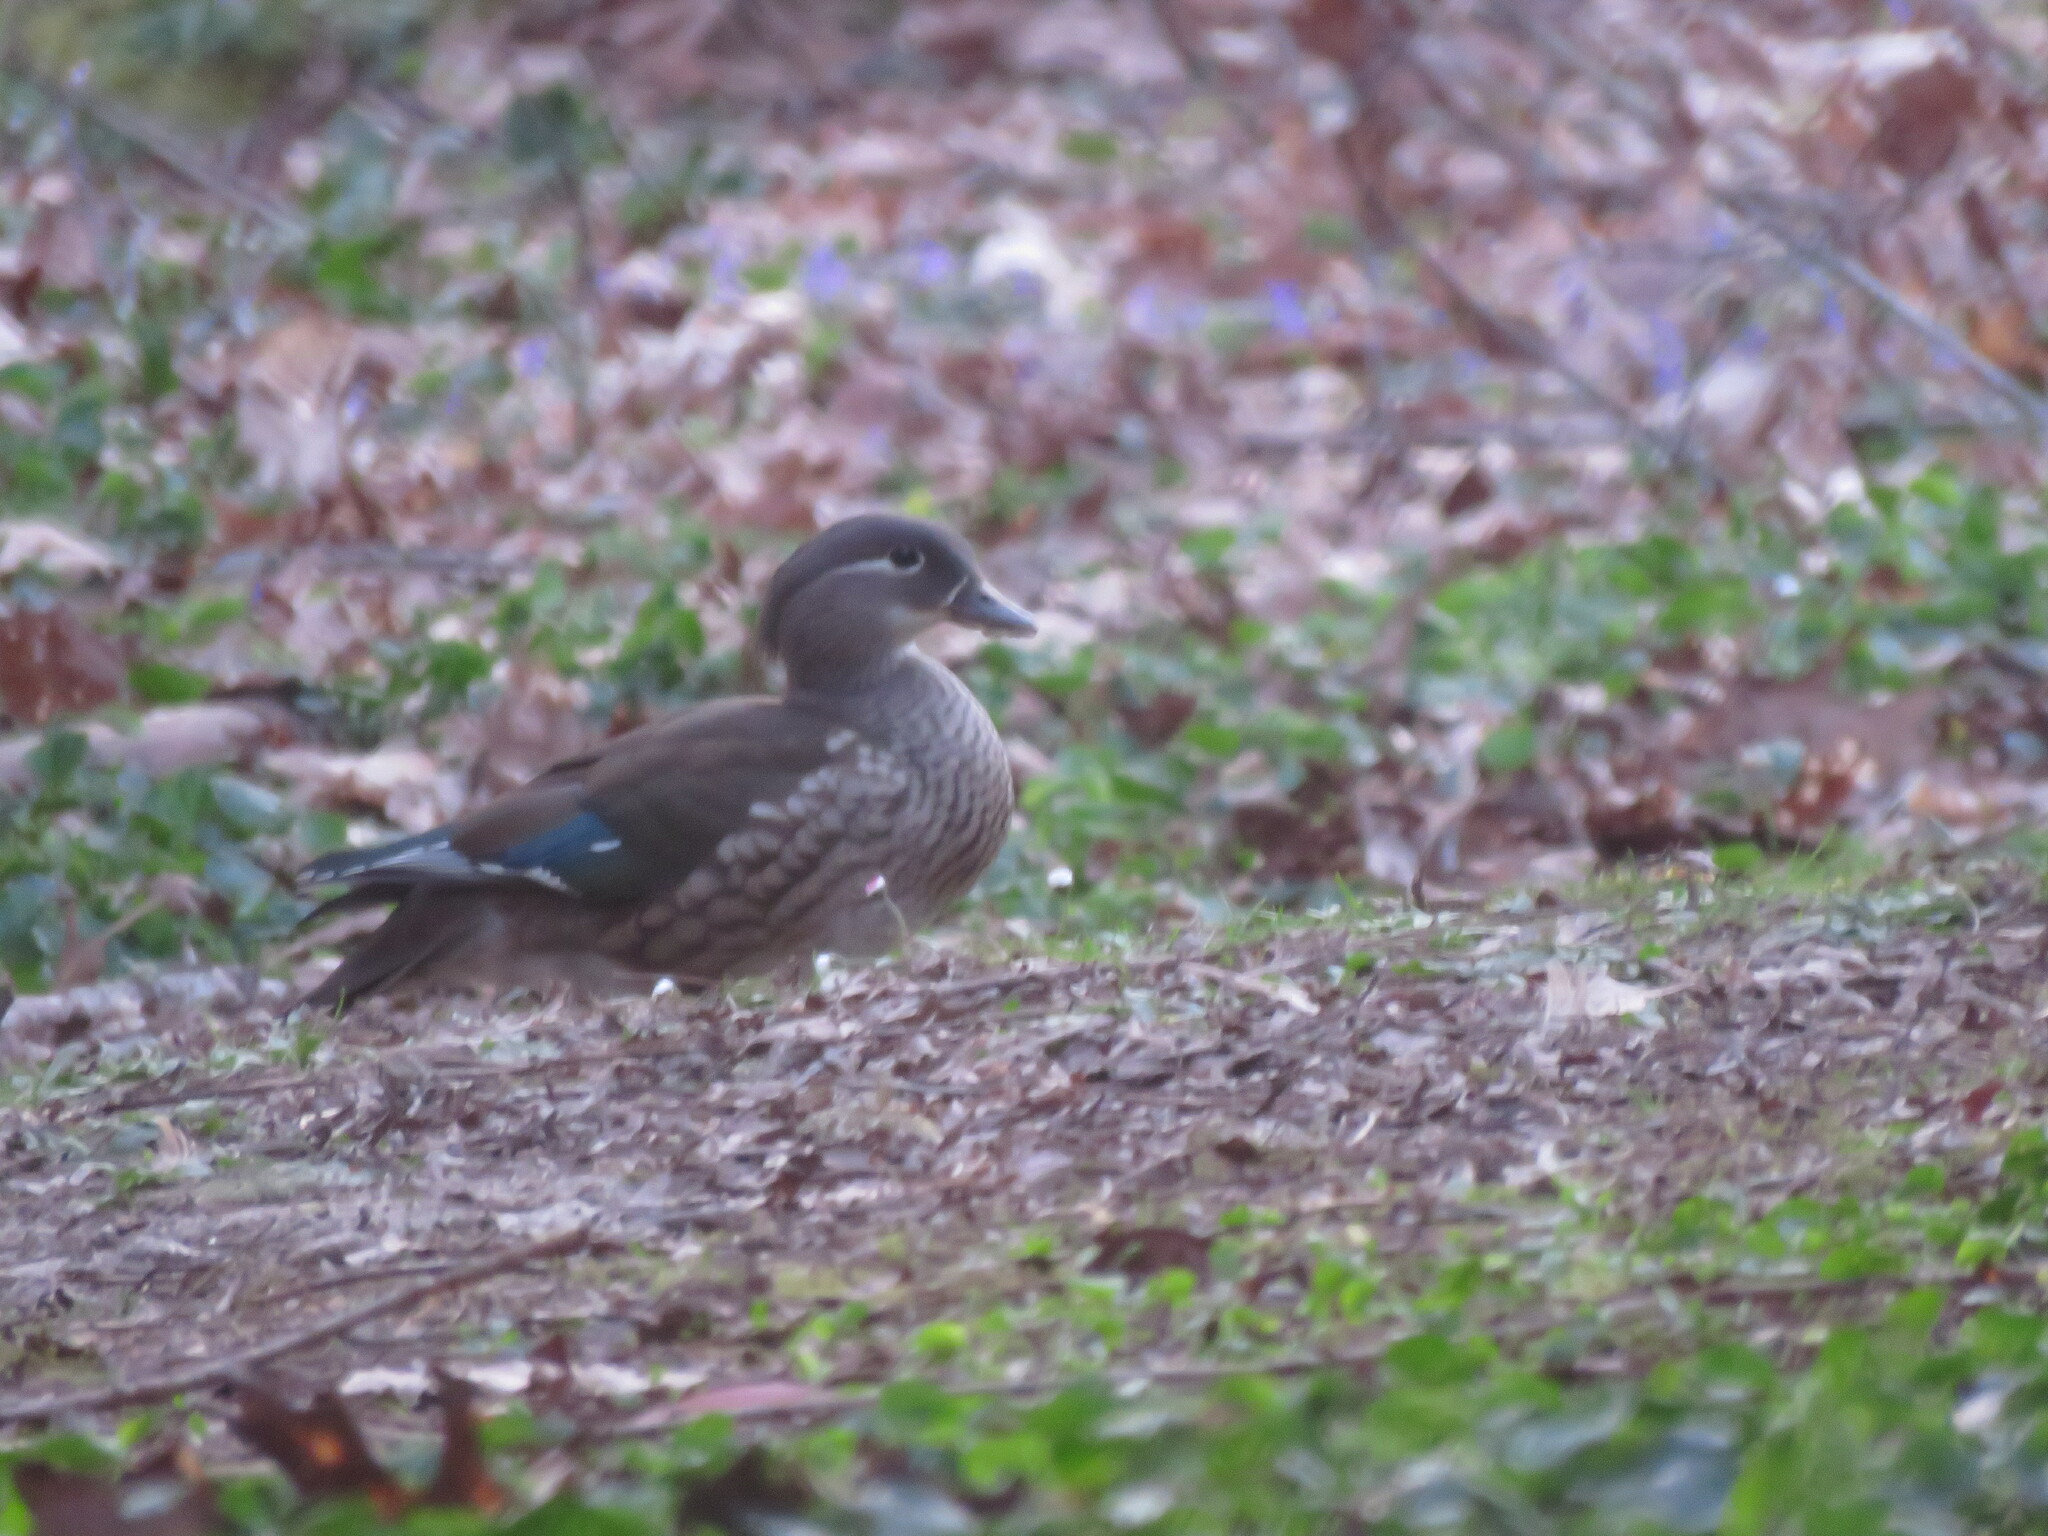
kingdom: Animalia
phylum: Chordata
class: Aves
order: Anseriformes
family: Anatidae
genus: Aix
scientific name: Aix galericulata
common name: Mandarin duck
